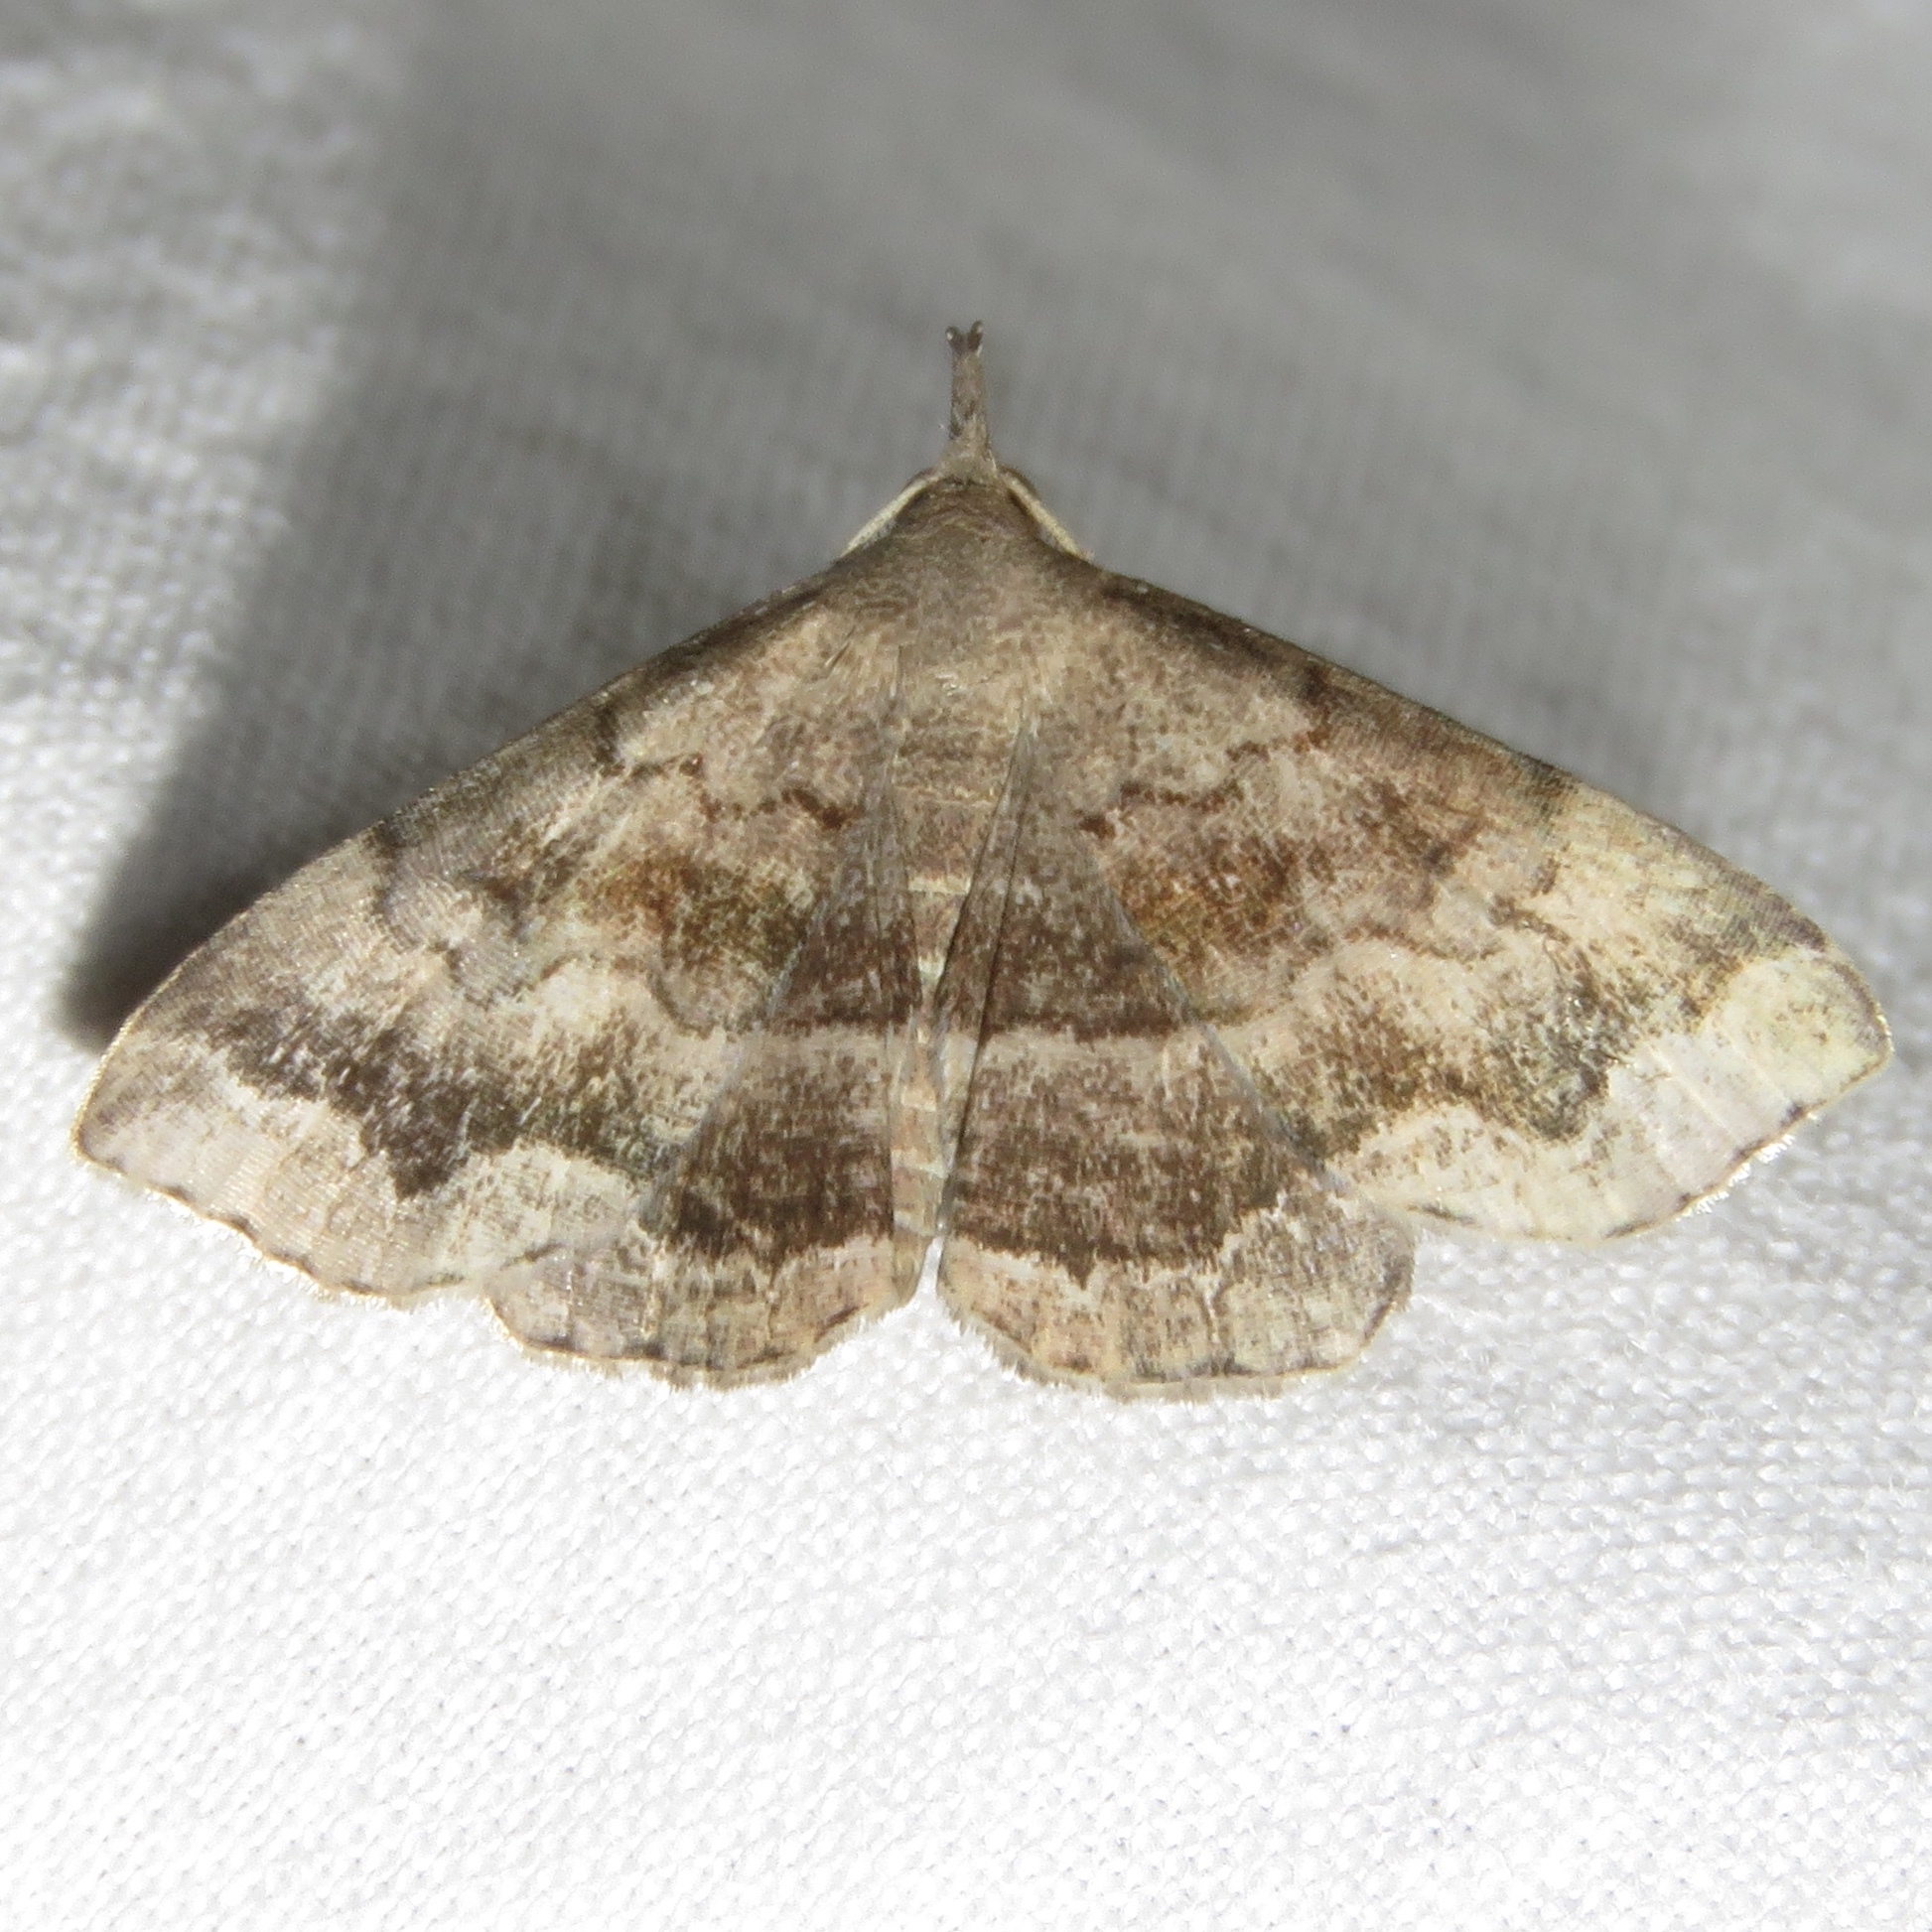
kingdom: Animalia
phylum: Arthropoda
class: Insecta
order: Lepidoptera
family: Erebidae
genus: Phalaenostola
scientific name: Phalaenostola larentioides
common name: Black-banded owlet
